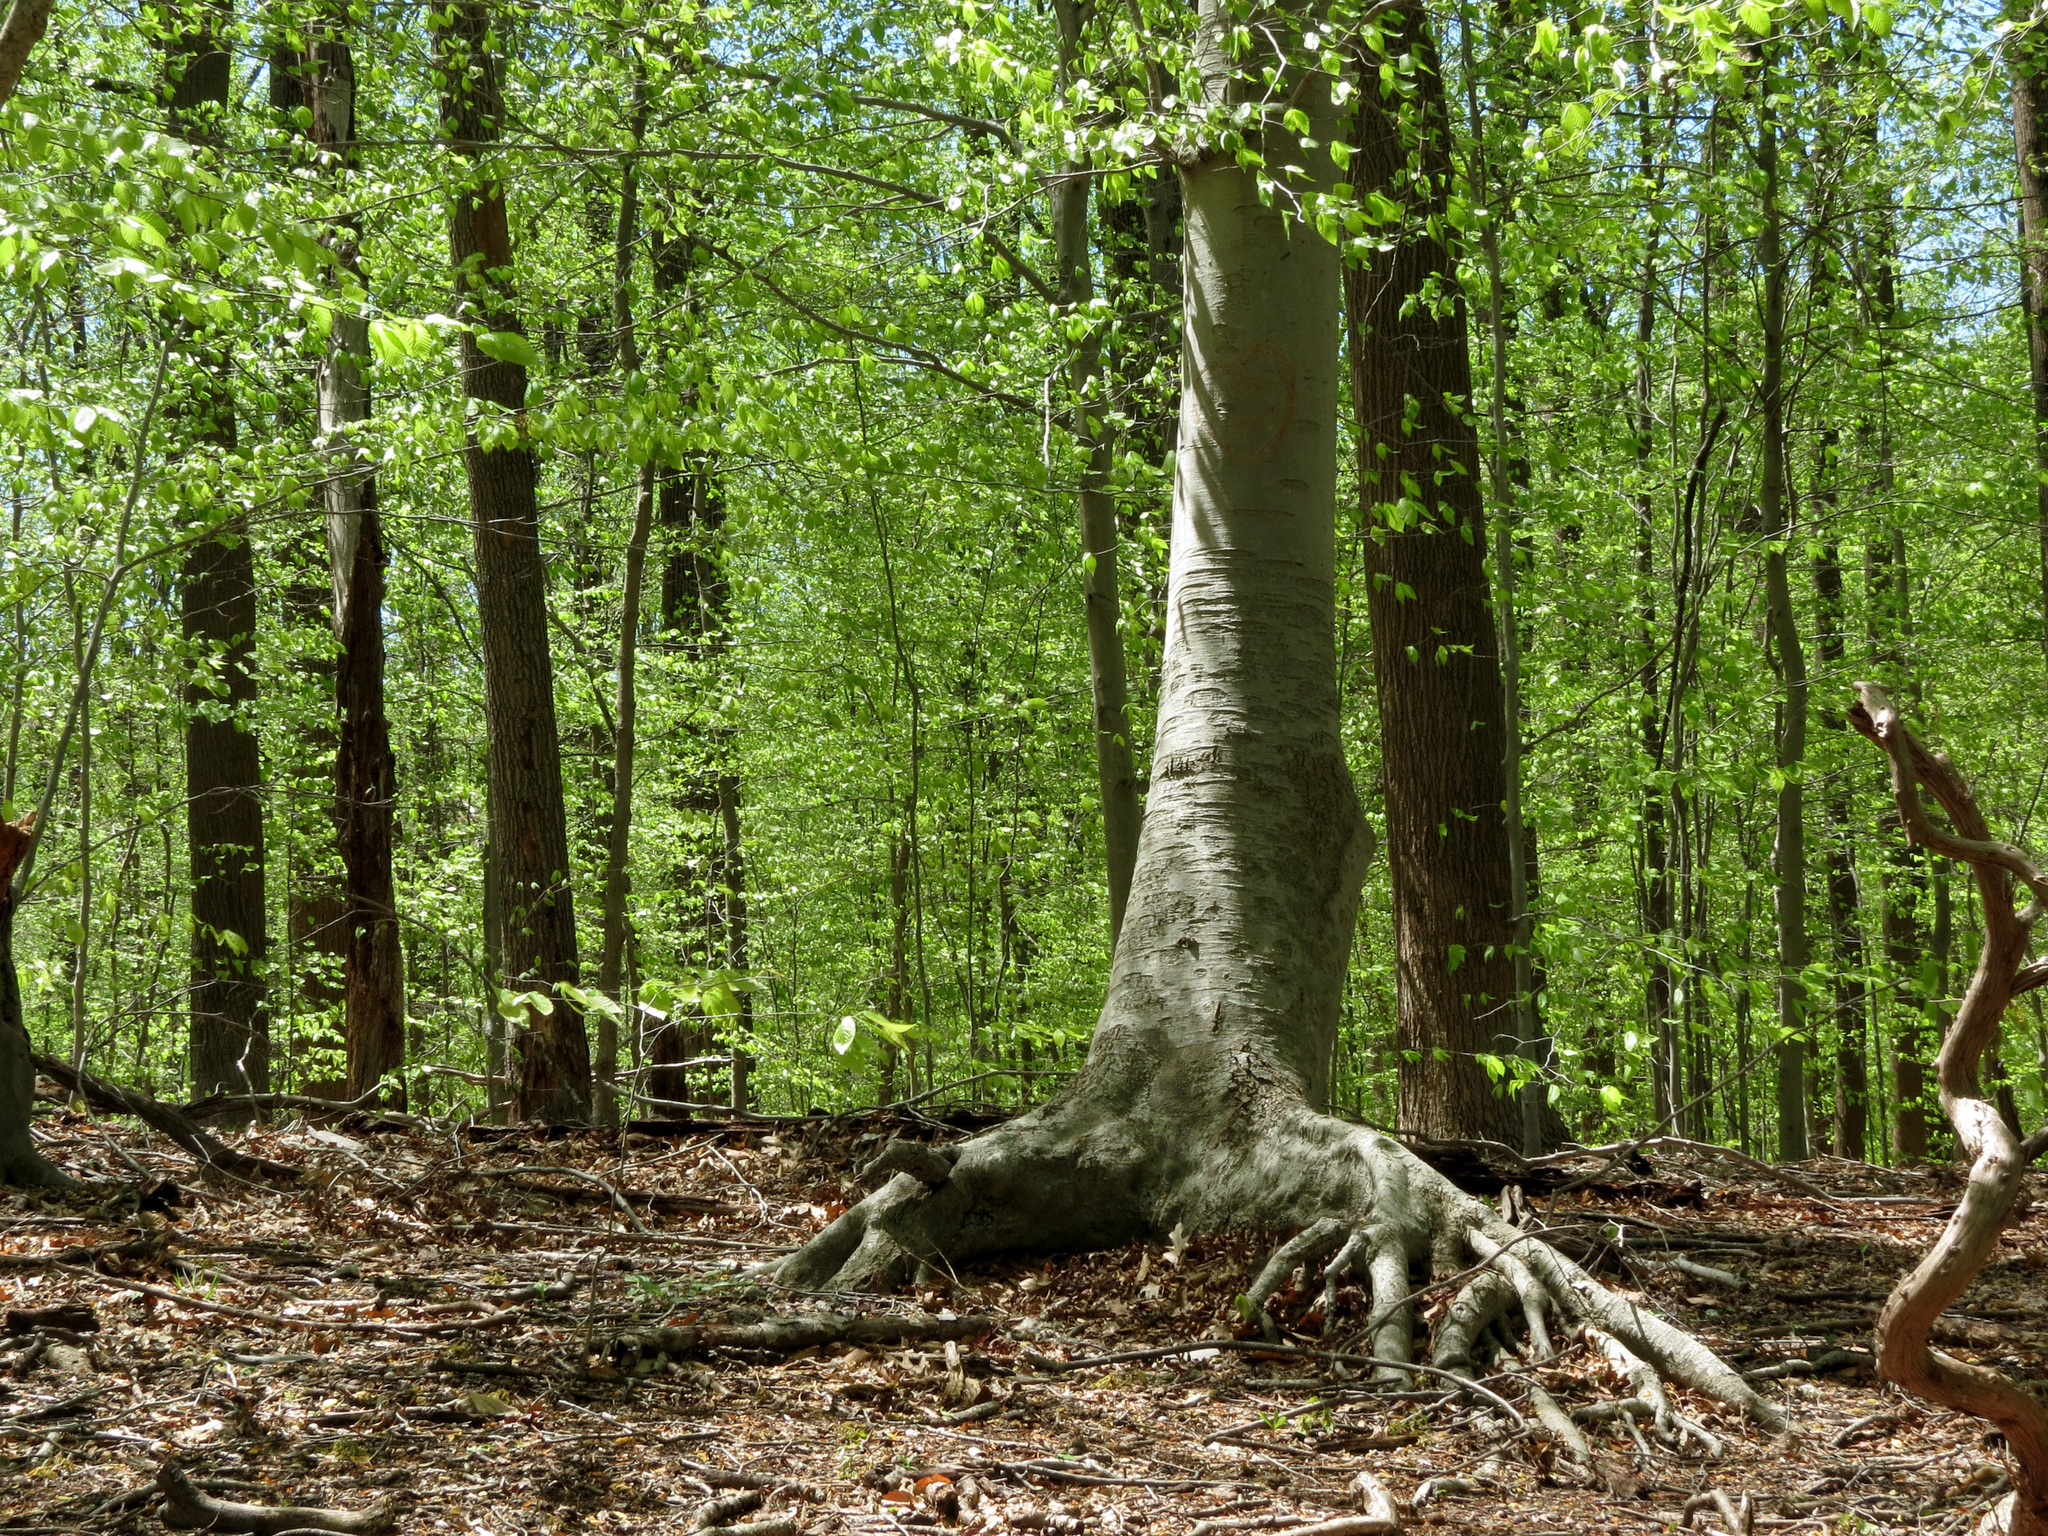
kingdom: Plantae
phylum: Tracheophyta
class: Magnoliopsida
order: Fagales
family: Fagaceae
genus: Fagus
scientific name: Fagus grandifolia
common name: American beech
